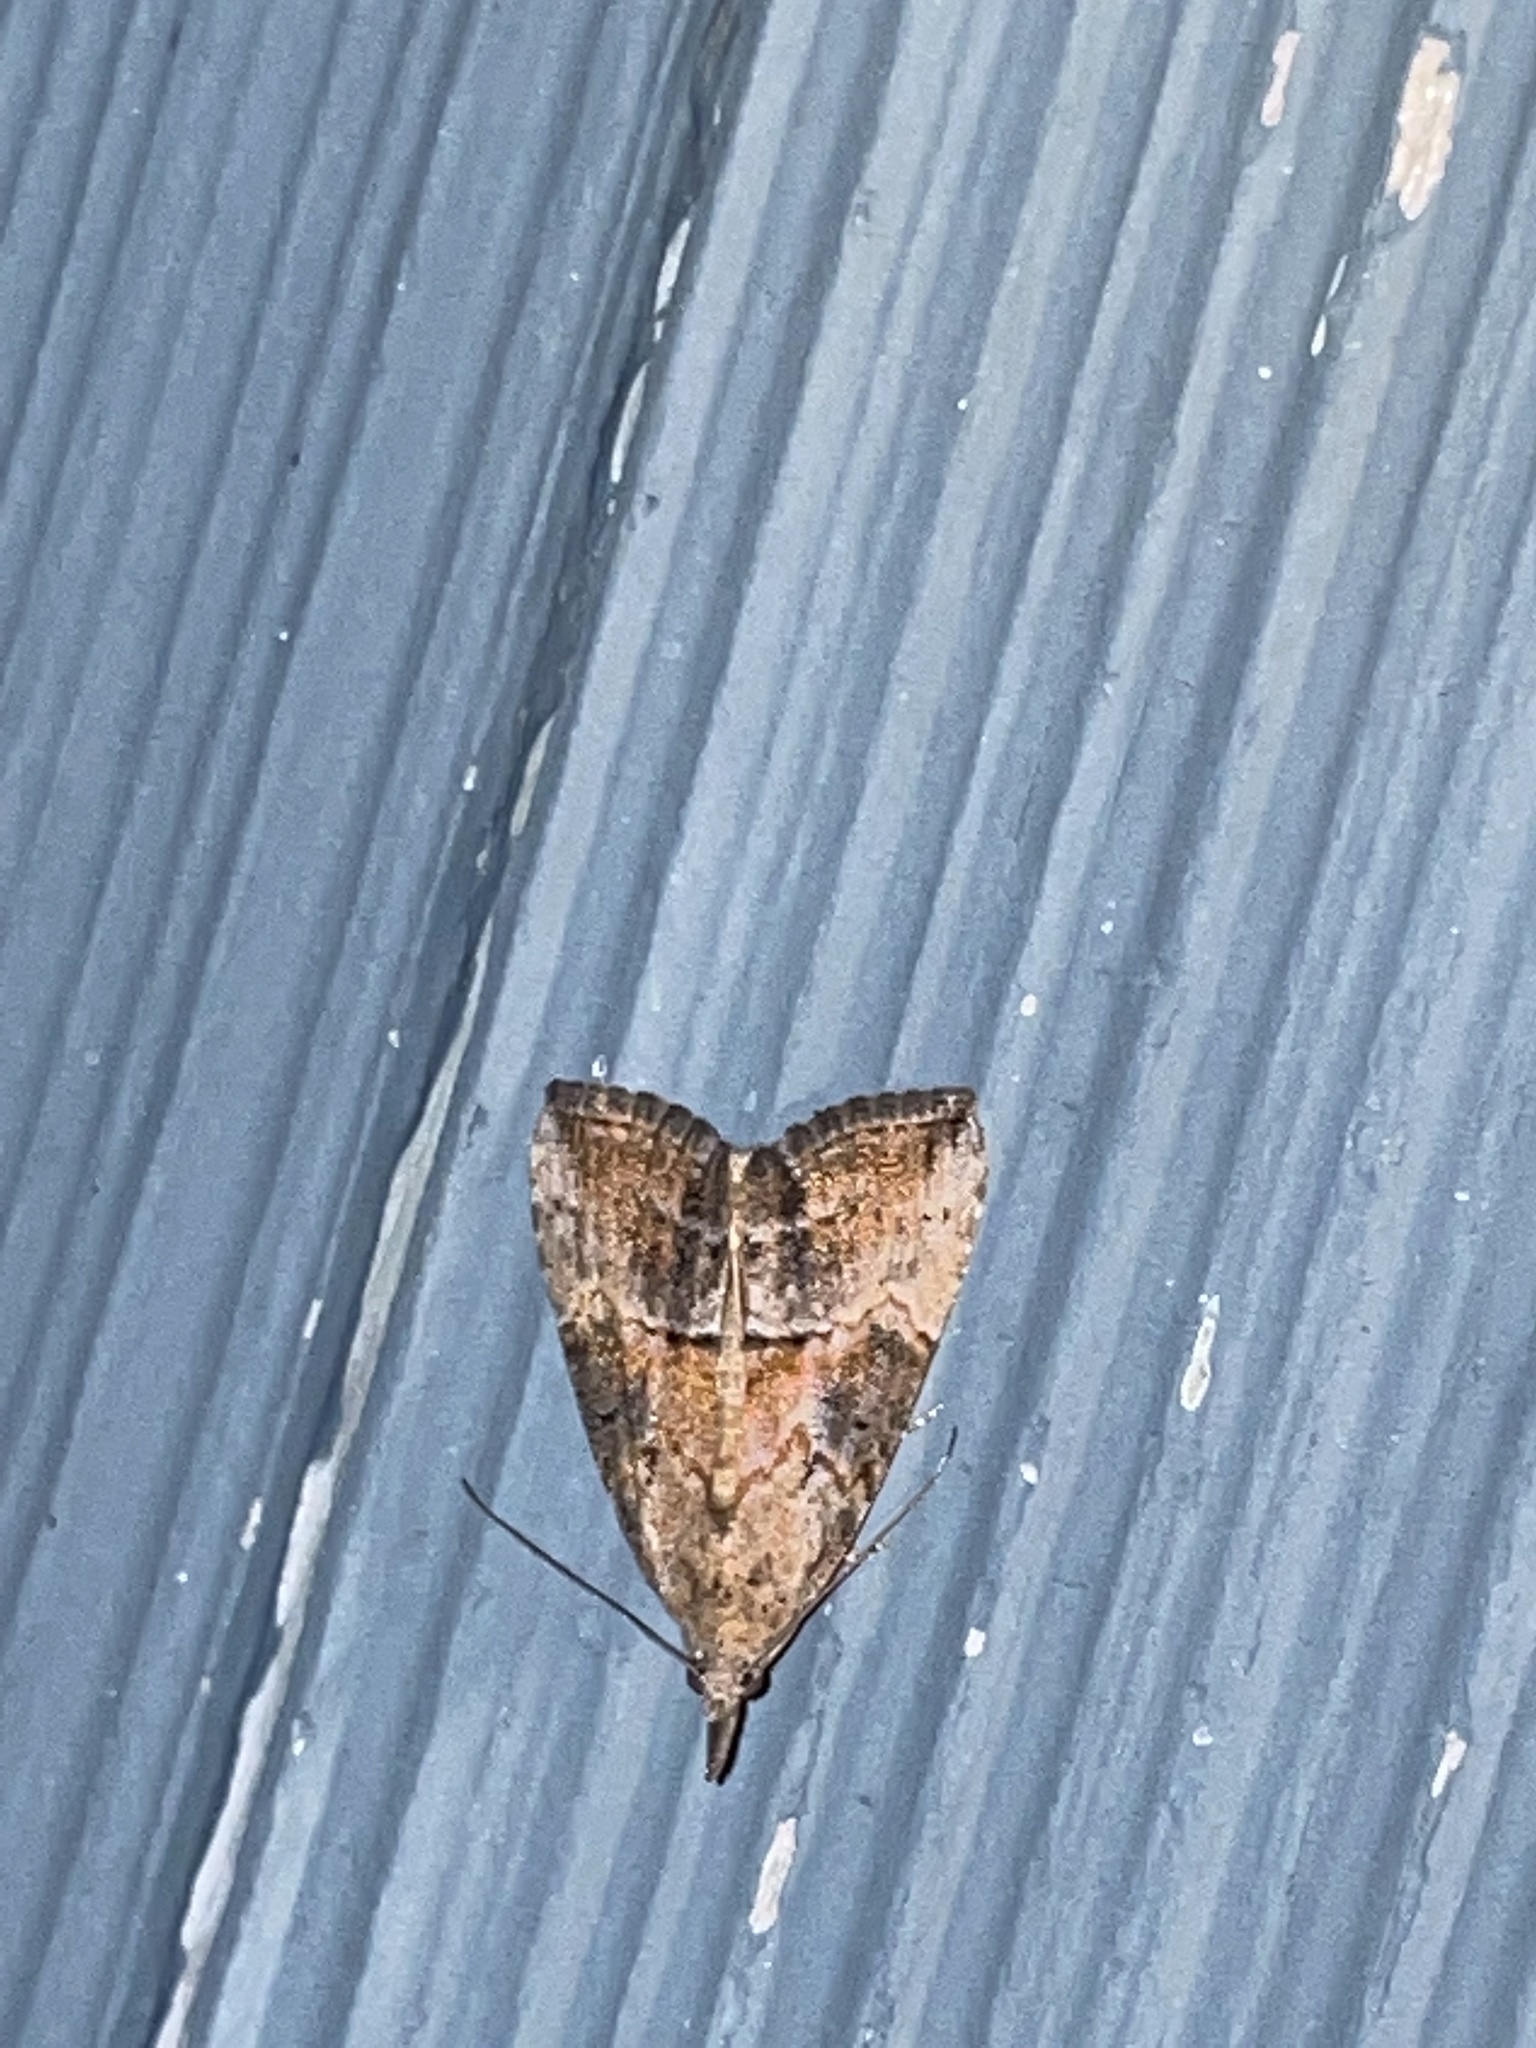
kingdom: Animalia
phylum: Arthropoda
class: Insecta
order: Lepidoptera
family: Erebidae
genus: Hypena
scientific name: Hypena scabra
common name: Green cloverworm
